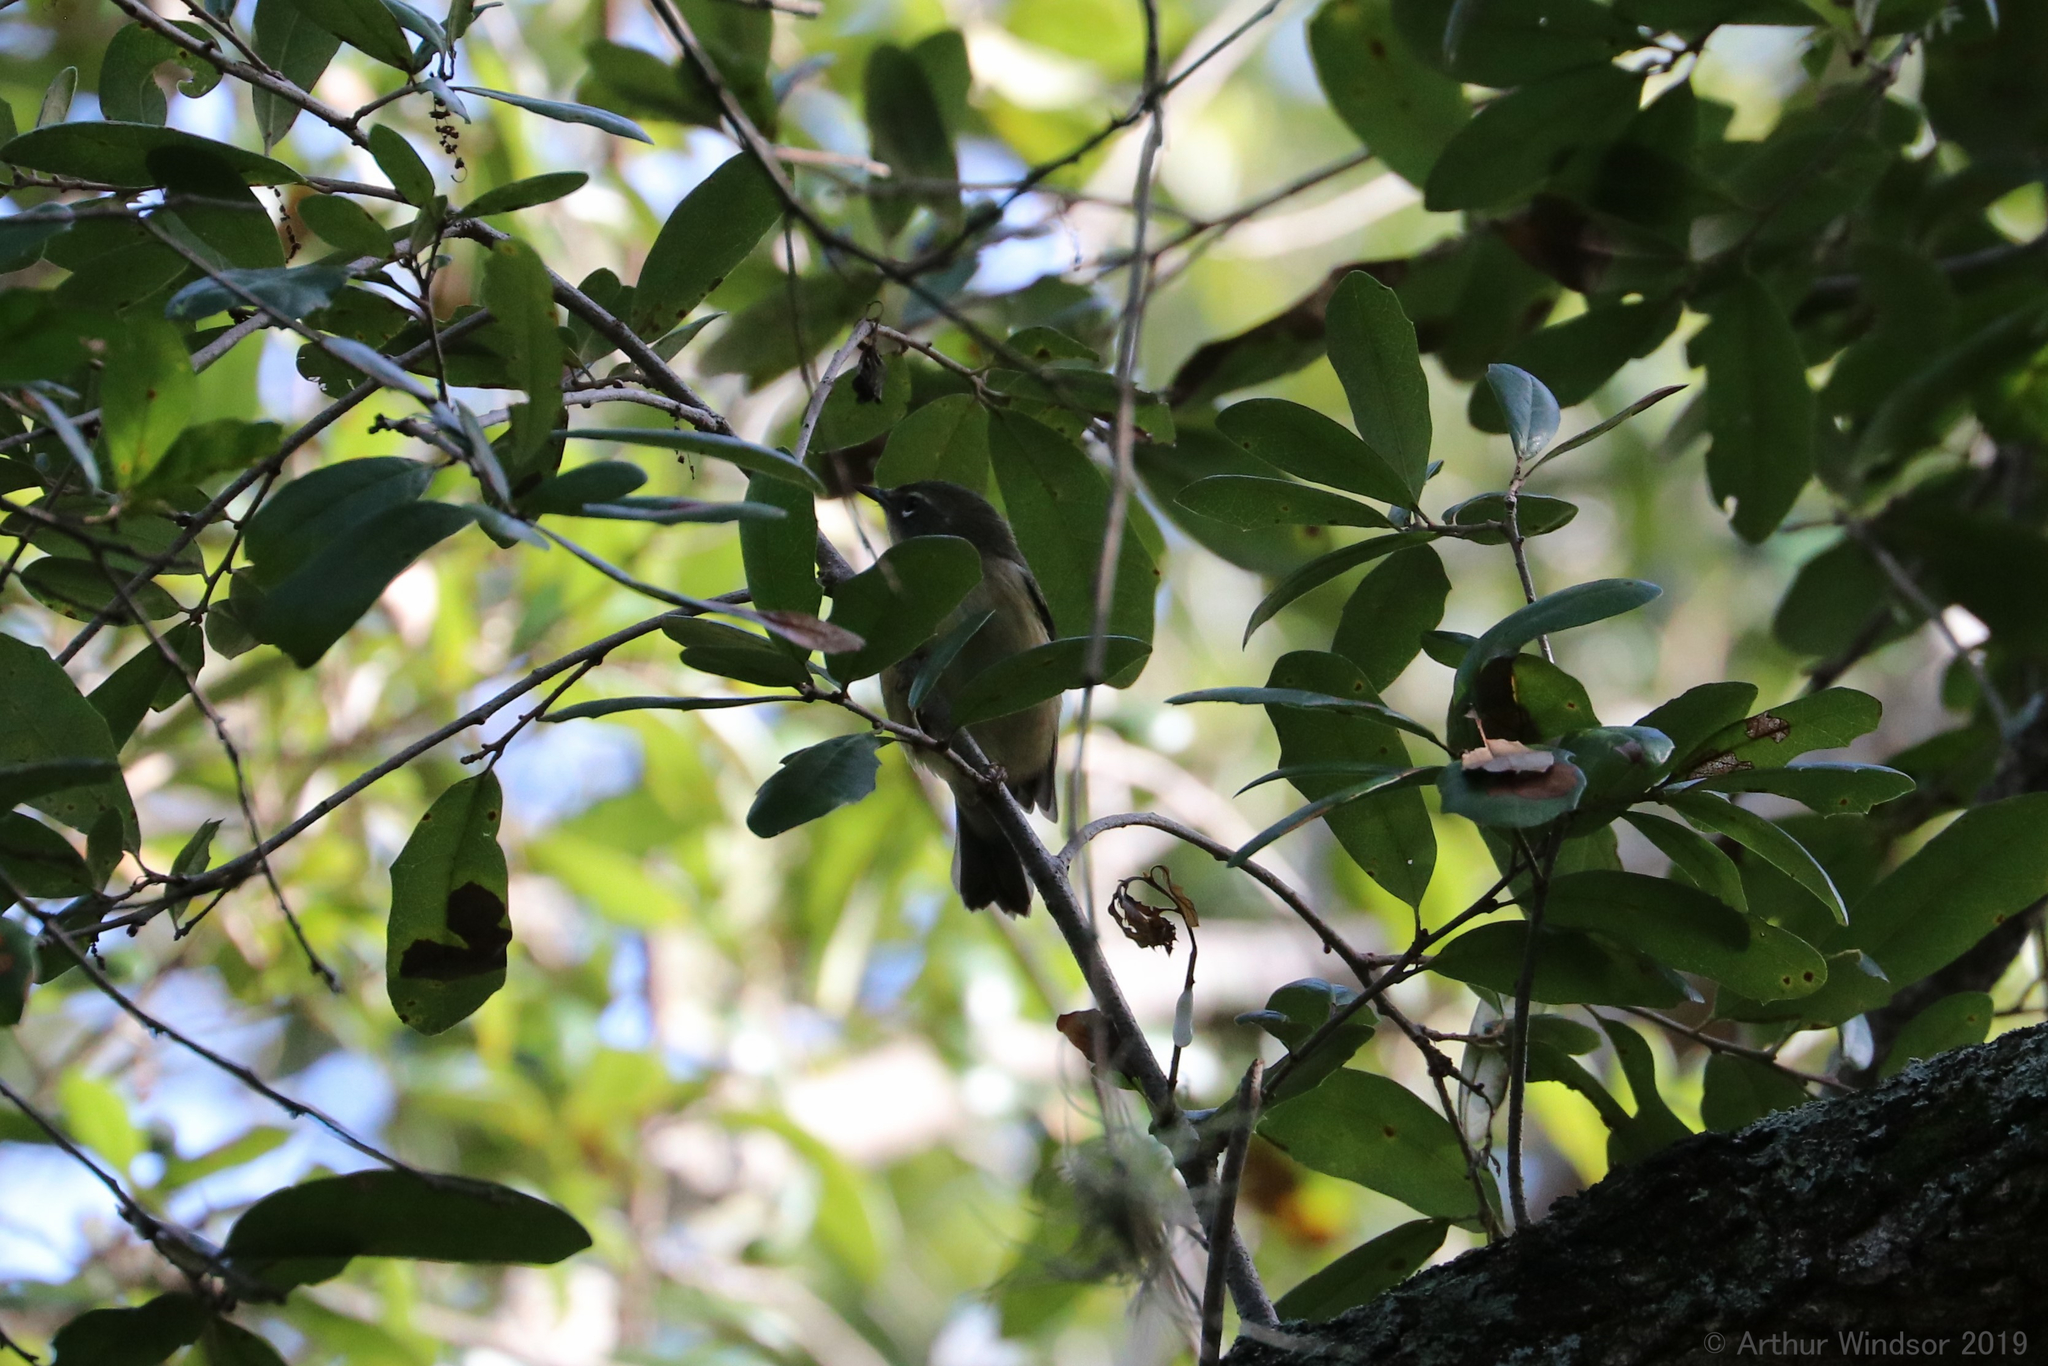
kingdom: Animalia
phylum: Chordata
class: Aves
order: Passeriformes
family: Parulidae
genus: Setophaga
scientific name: Setophaga caerulescens
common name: Black-throated blue warbler
